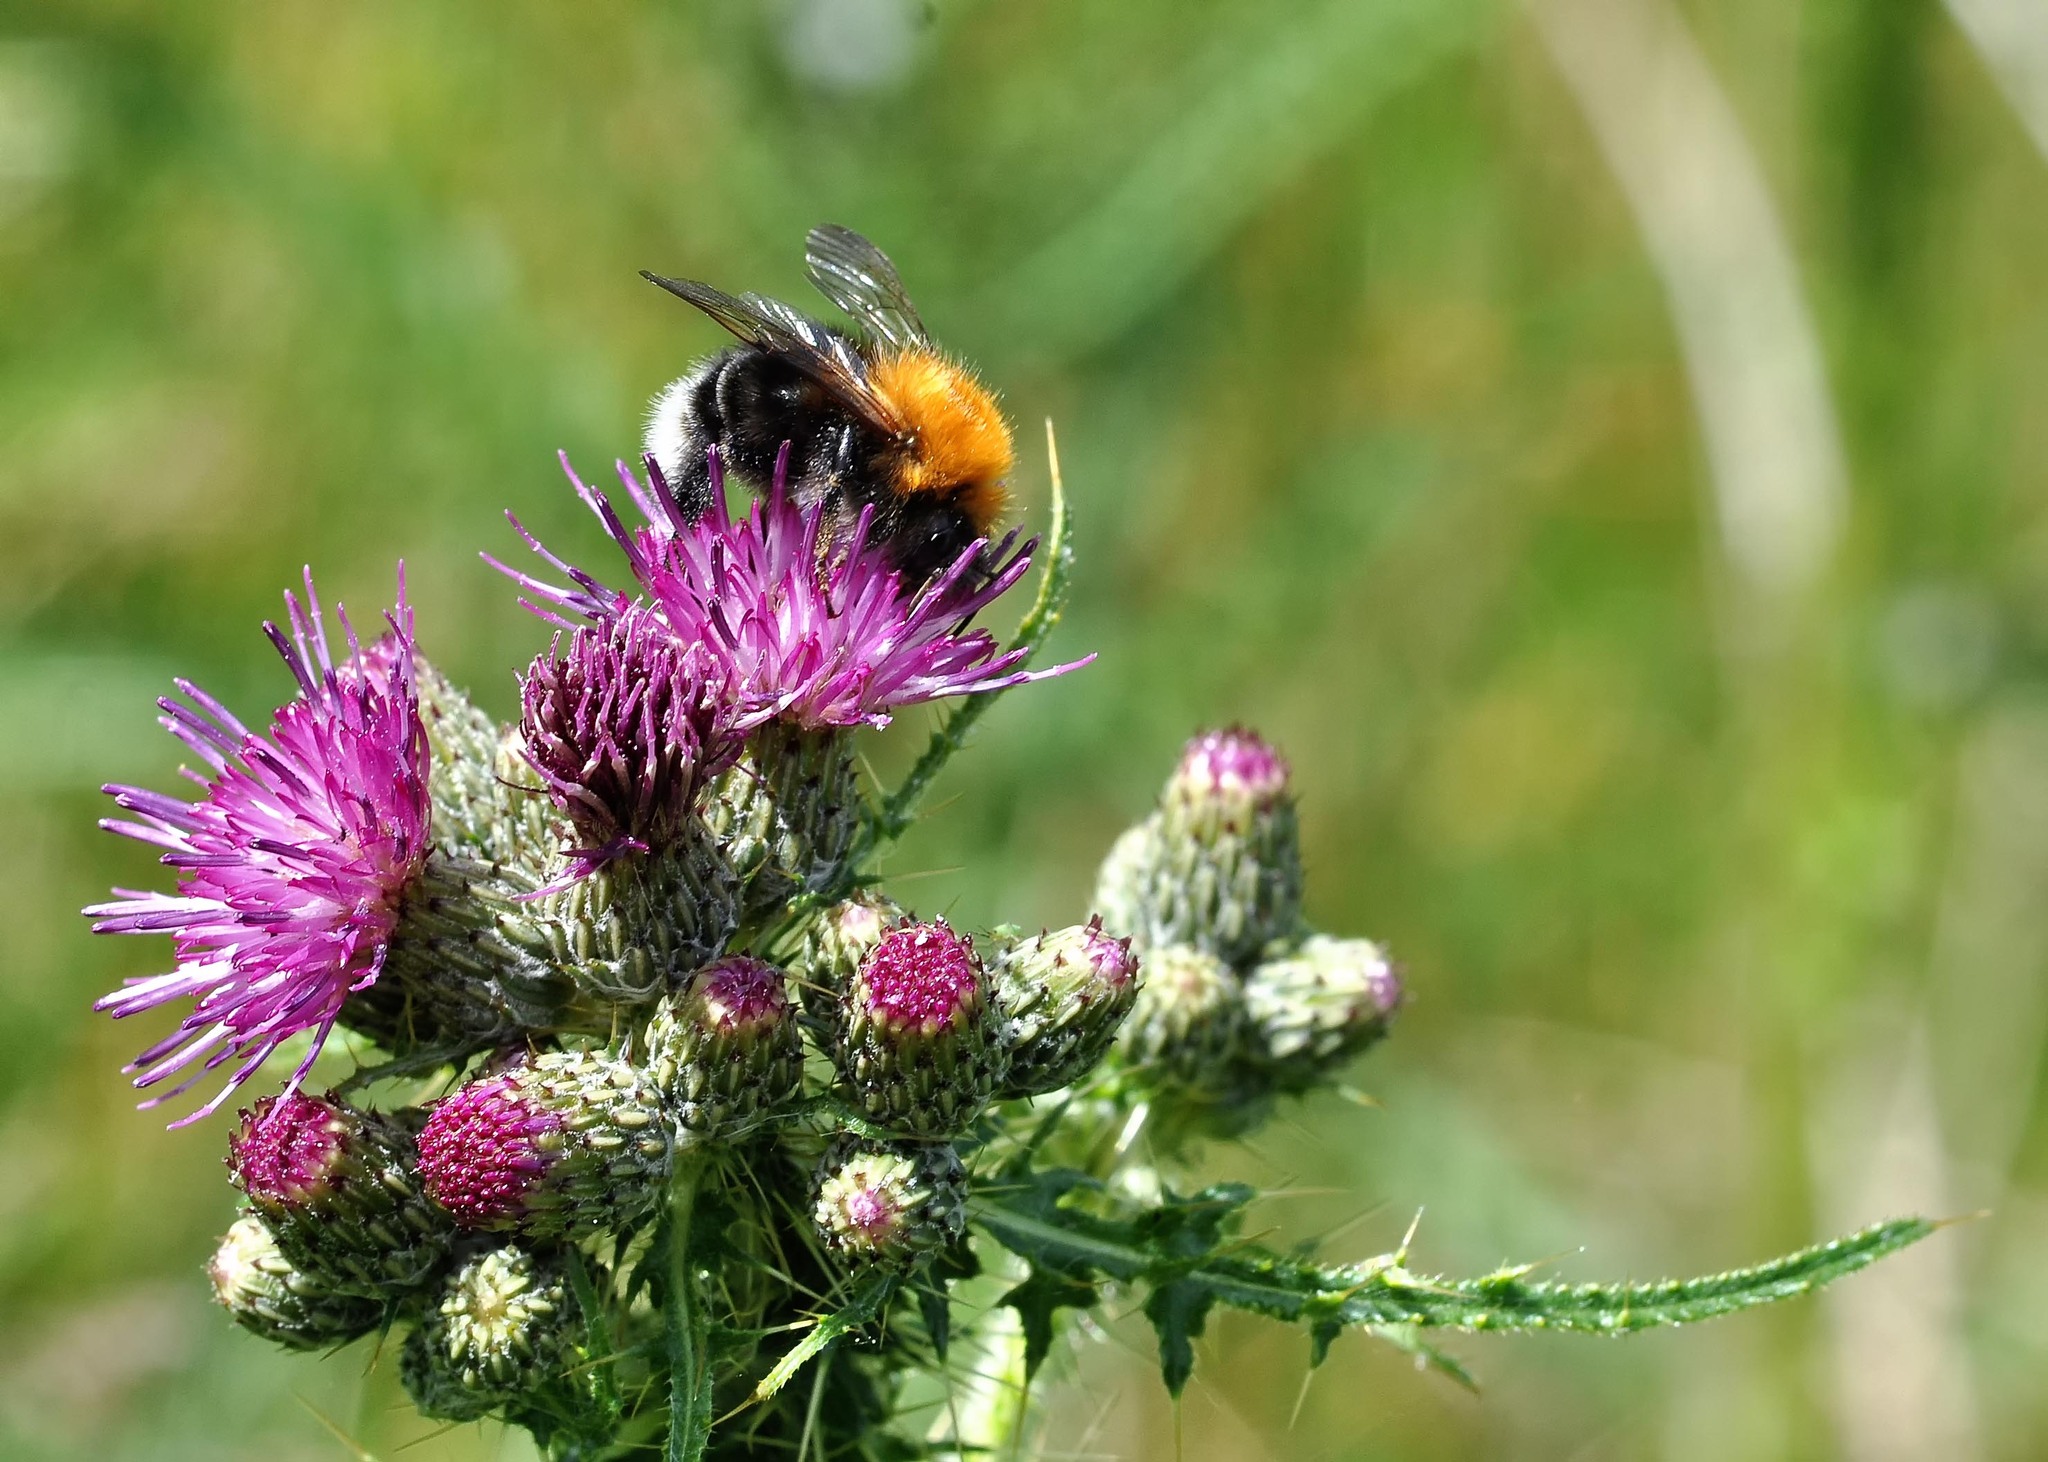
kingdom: Animalia
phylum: Arthropoda
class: Insecta
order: Hymenoptera
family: Apidae
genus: Bombus
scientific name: Bombus hypnorum
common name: New garden bumblebee
